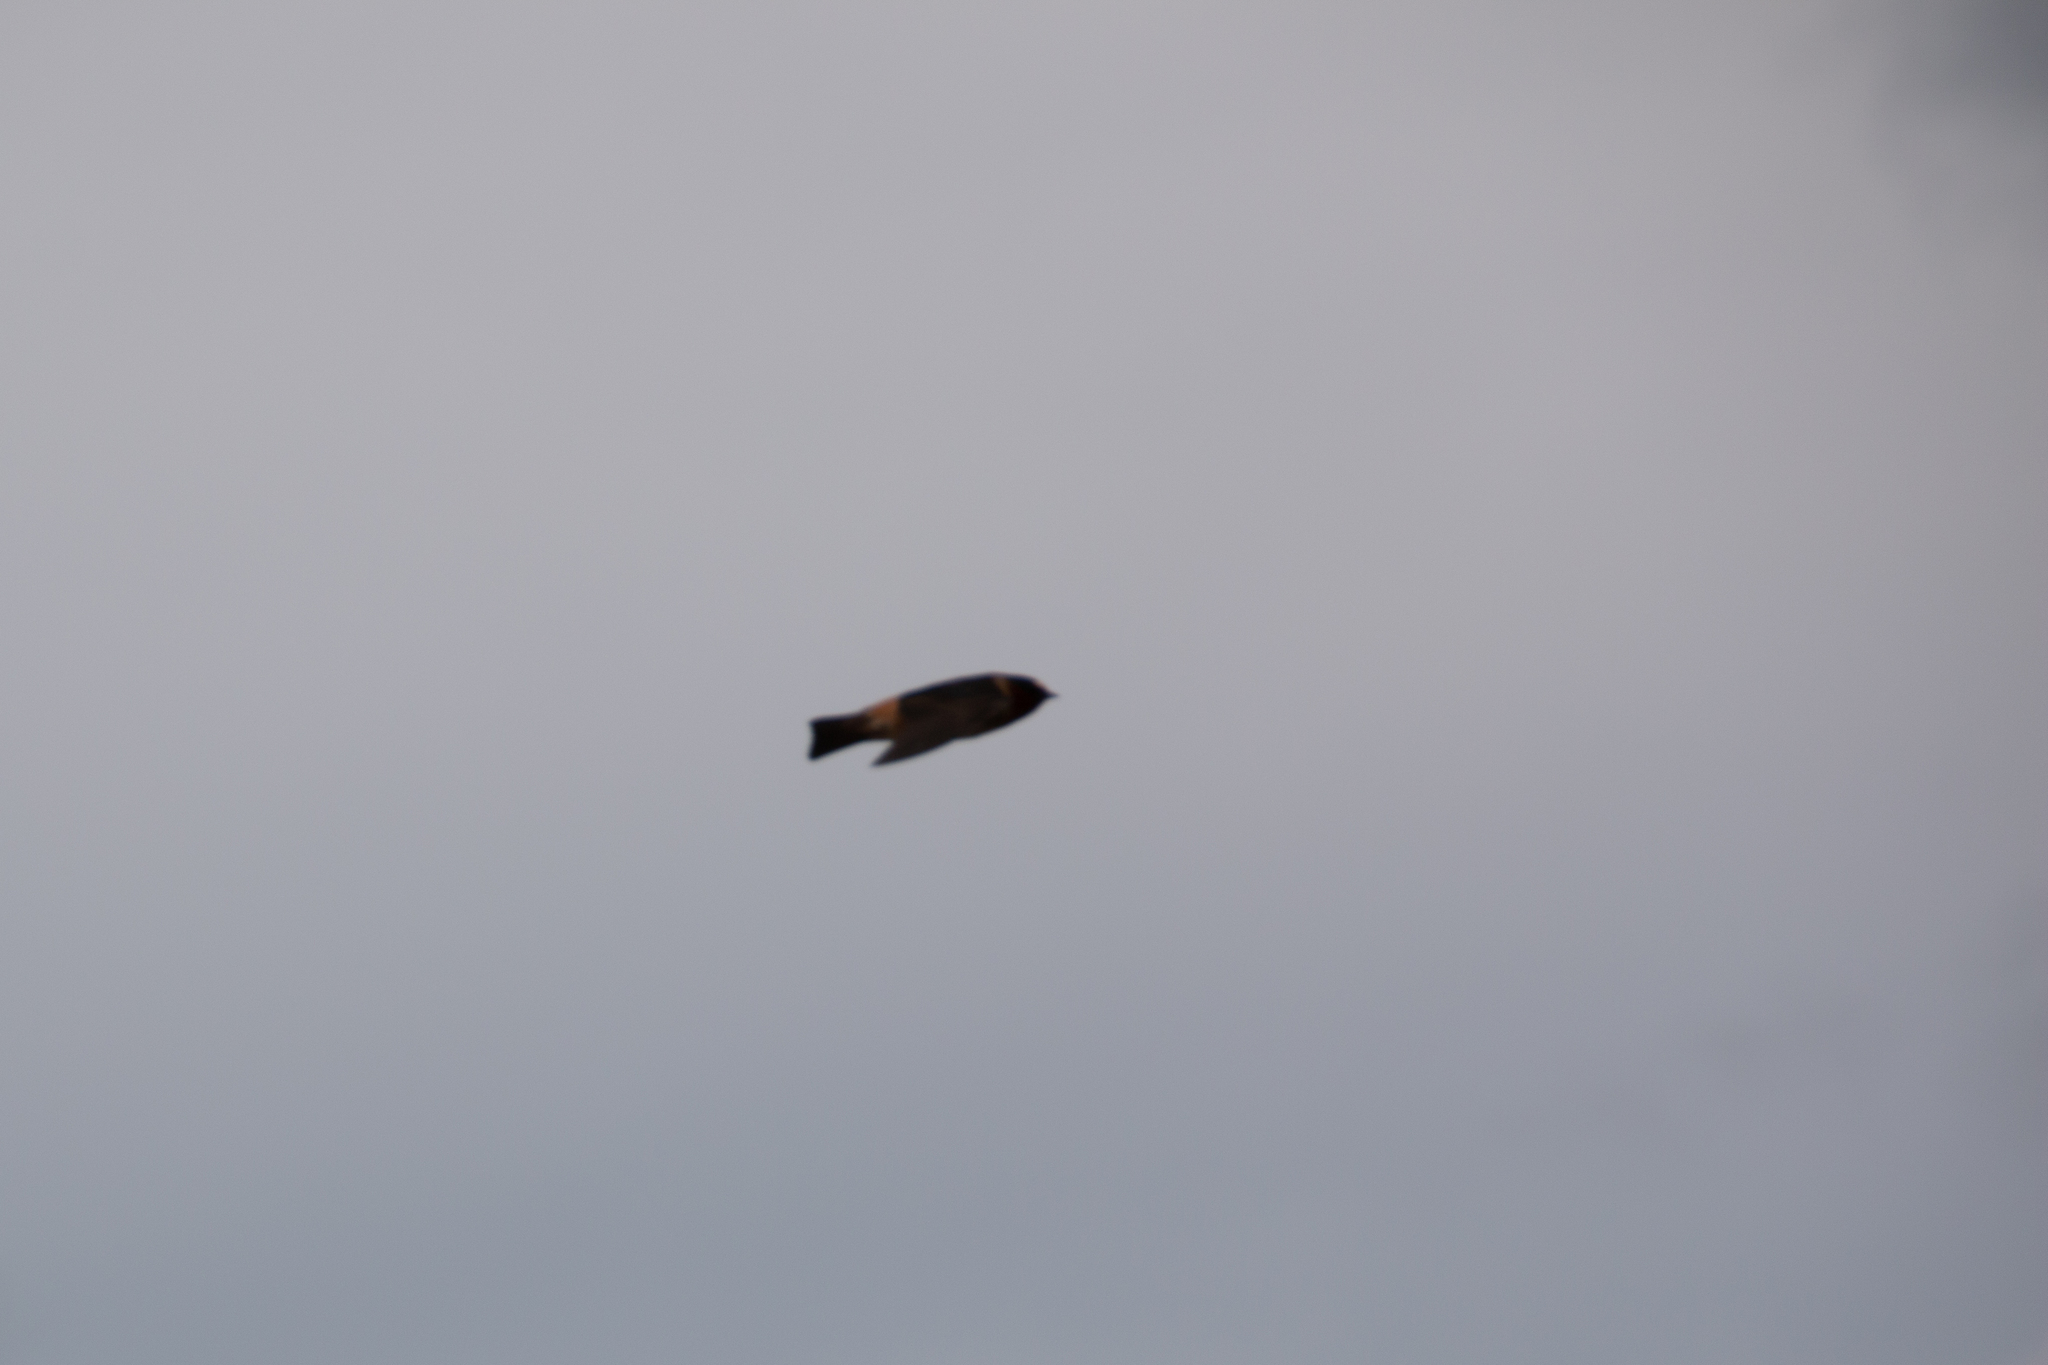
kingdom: Animalia
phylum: Chordata
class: Aves
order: Passeriformes
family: Hirundinidae
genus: Petrochelidon
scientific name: Petrochelidon pyrrhonota
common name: American cliff swallow
